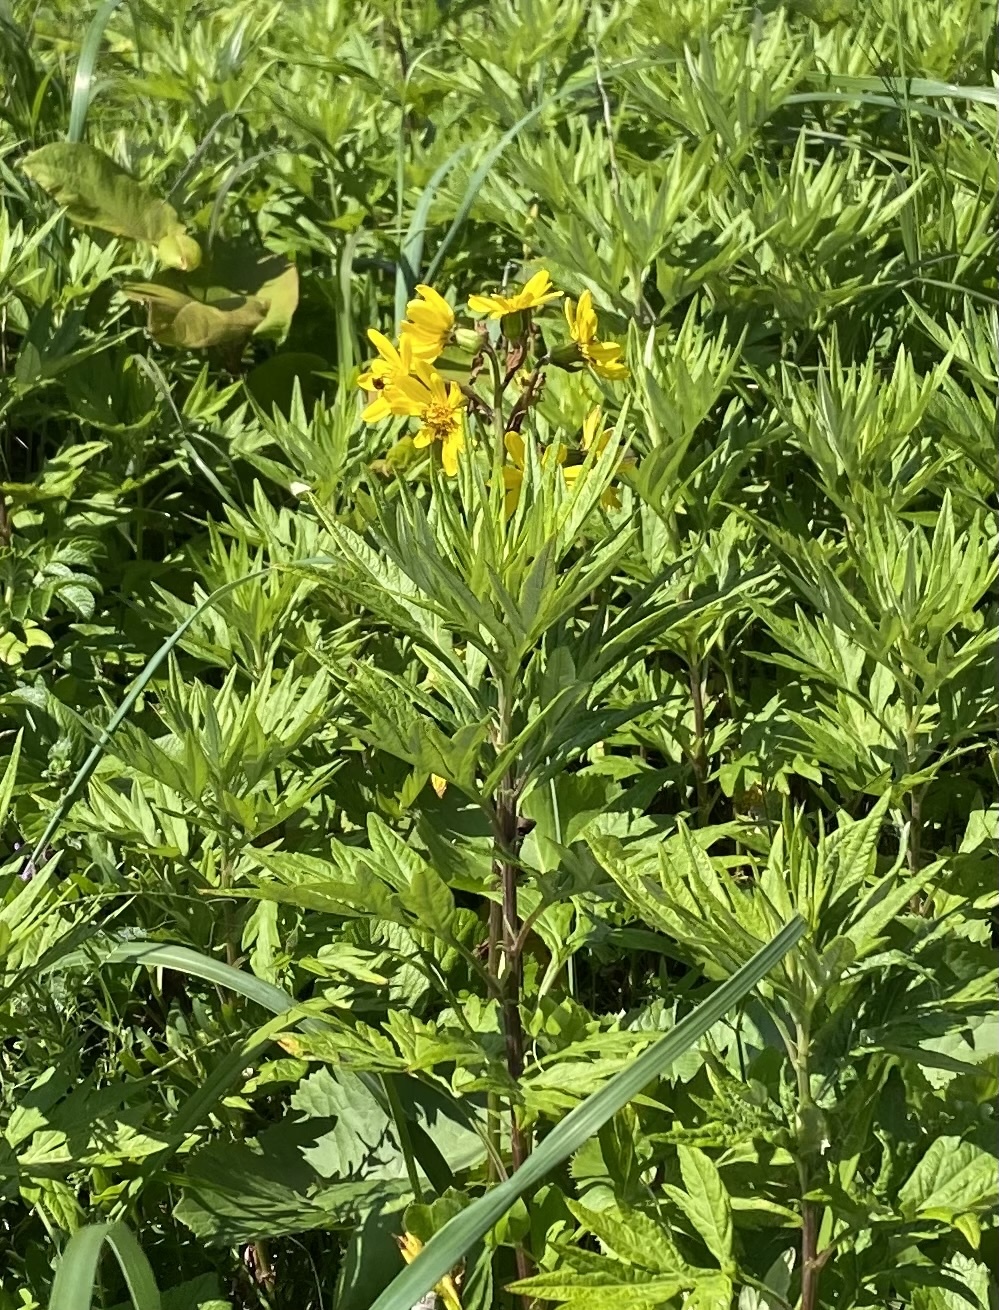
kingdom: Plantae
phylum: Tracheophyta
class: Magnoliopsida
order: Asterales
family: Asteraceae
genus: Jacobaea
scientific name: Jacobaea cannabifolia
